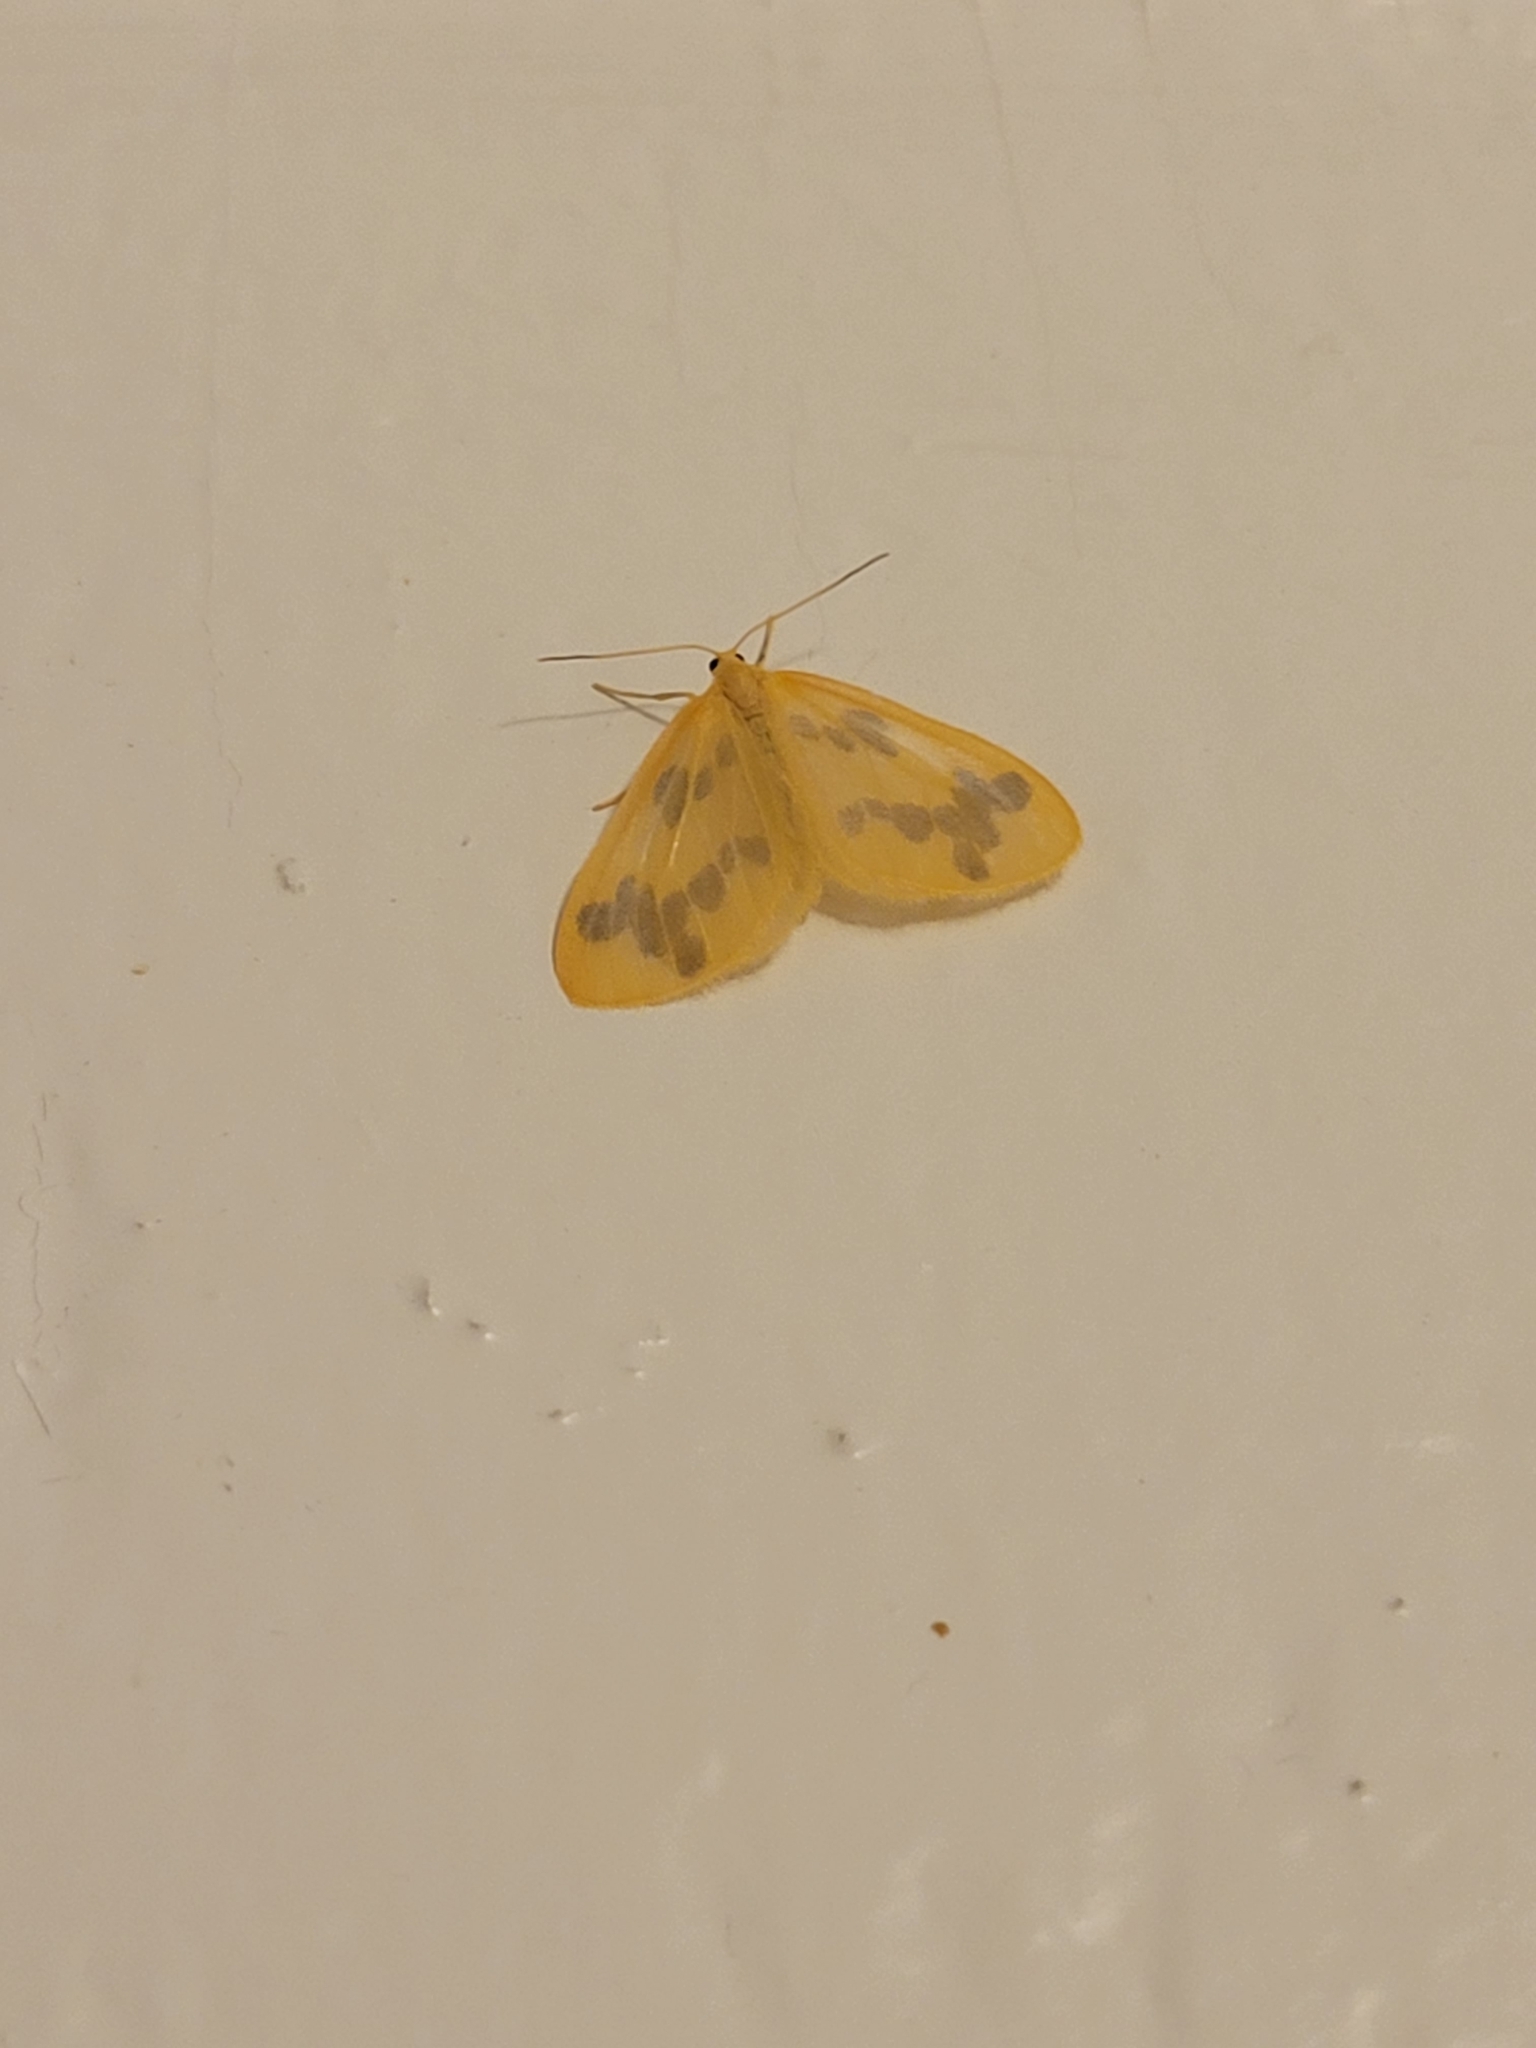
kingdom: Animalia
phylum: Arthropoda
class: Insecta
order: Lepidoptera
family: Geometridae
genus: Eubaphe
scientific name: Eubaphe mendica
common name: Beggar
